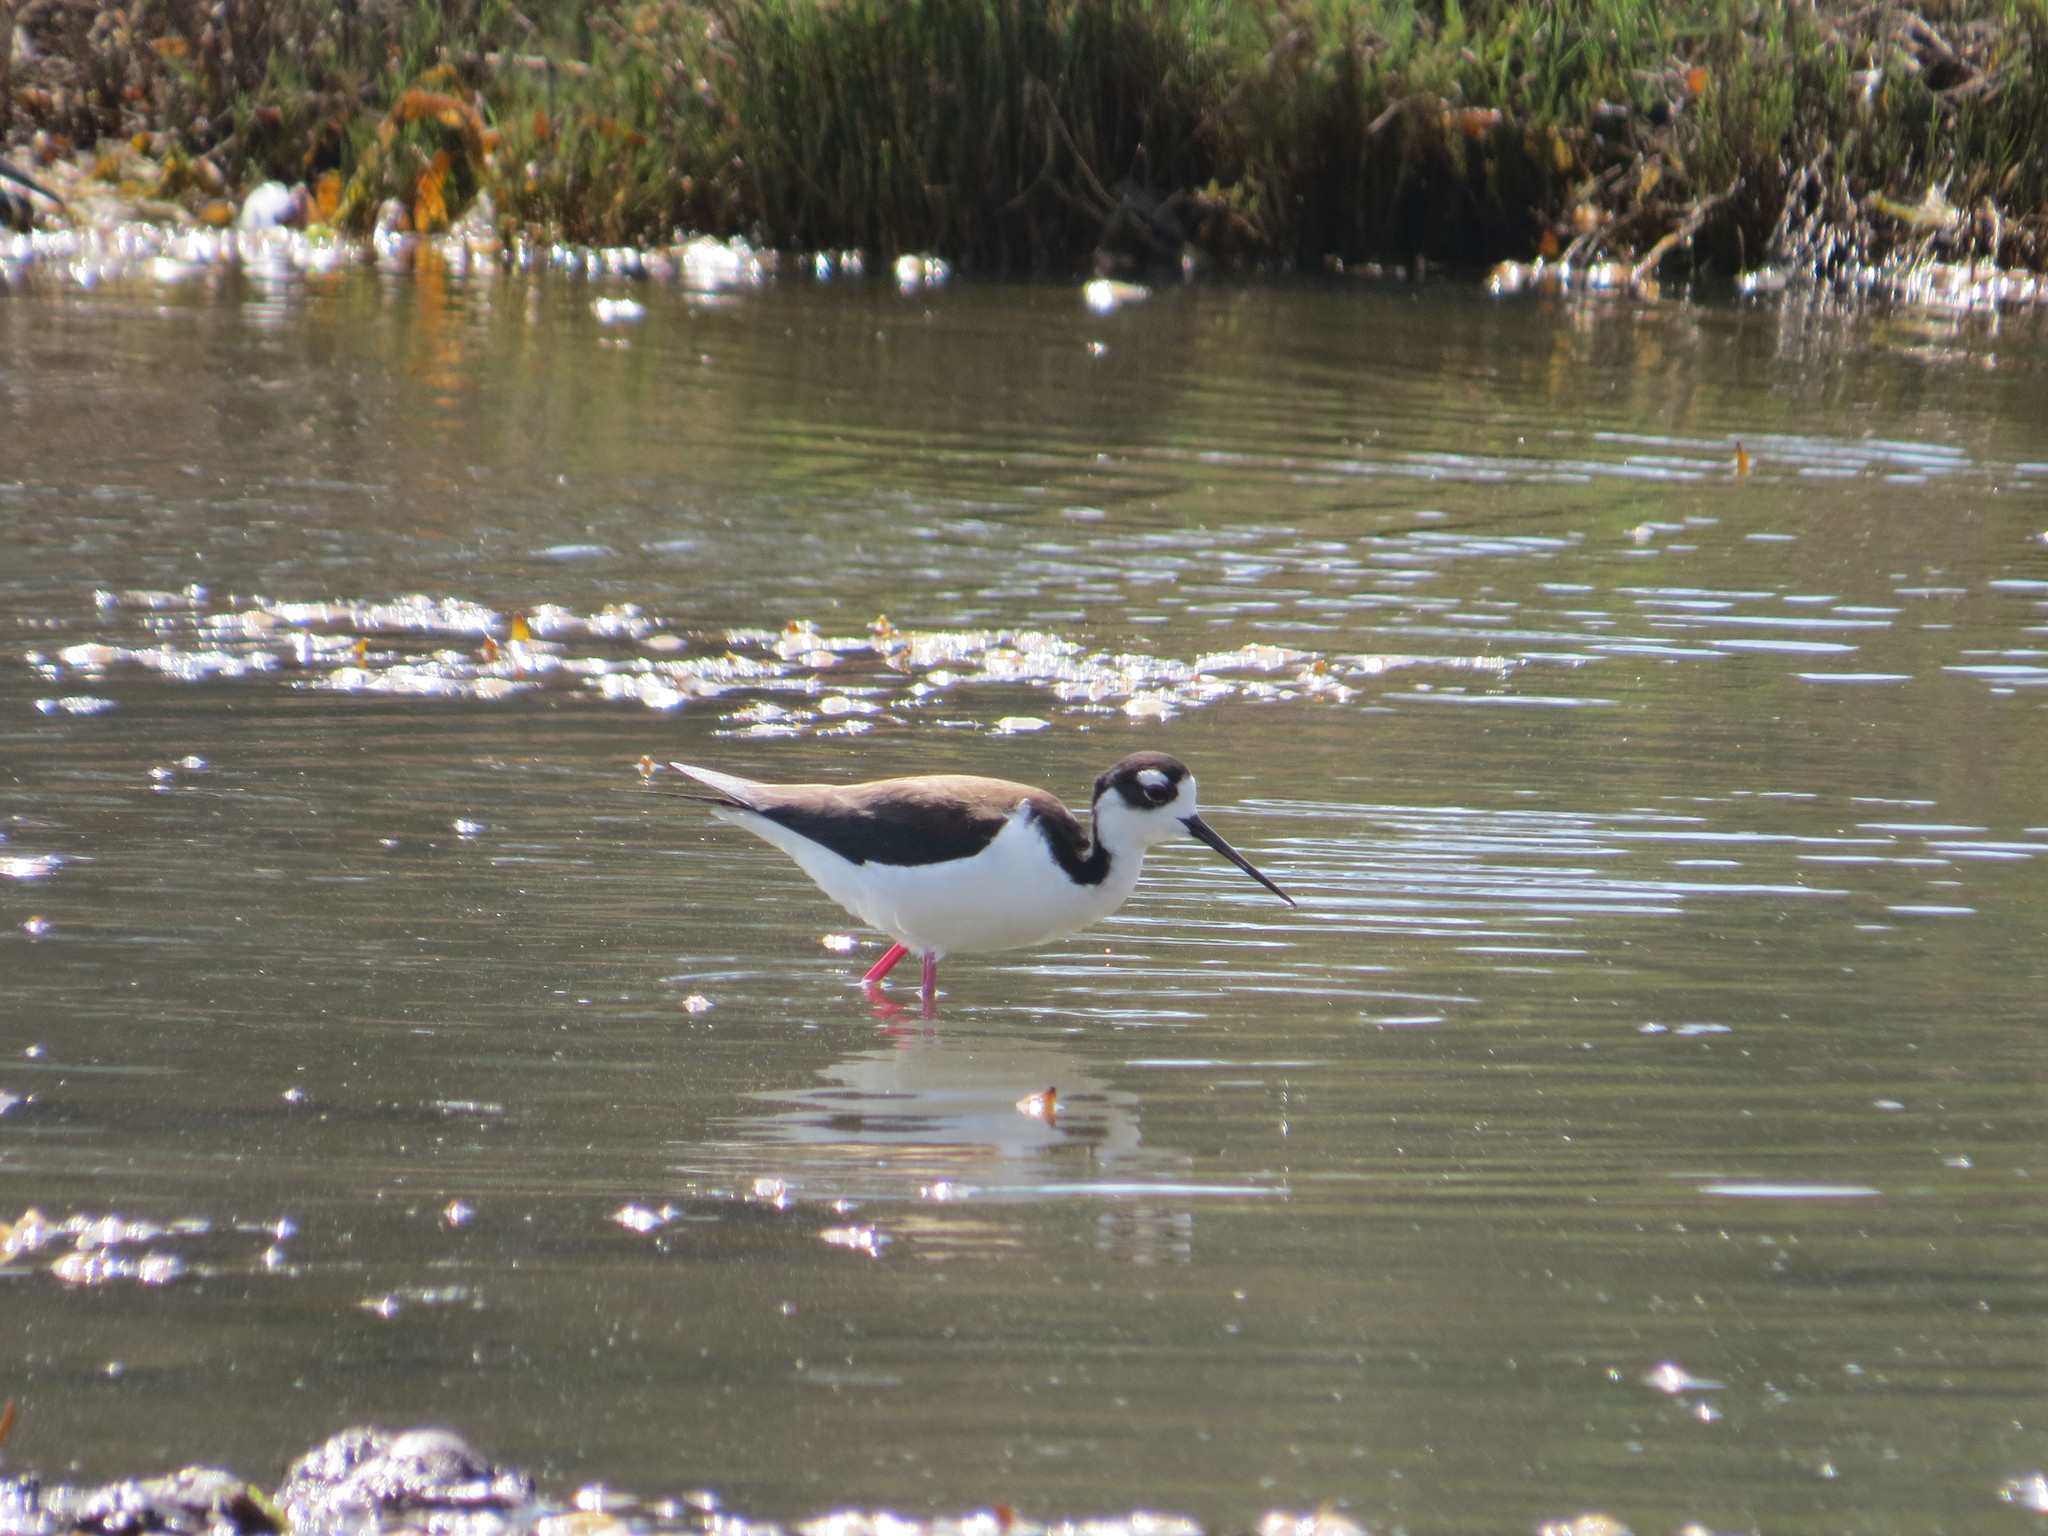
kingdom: Animalia
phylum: Chordata
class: Aves
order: Charadriiformes
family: Recurvirostridae
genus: Himantopus
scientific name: Himantopus mexicanus
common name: Black-necked stilt
